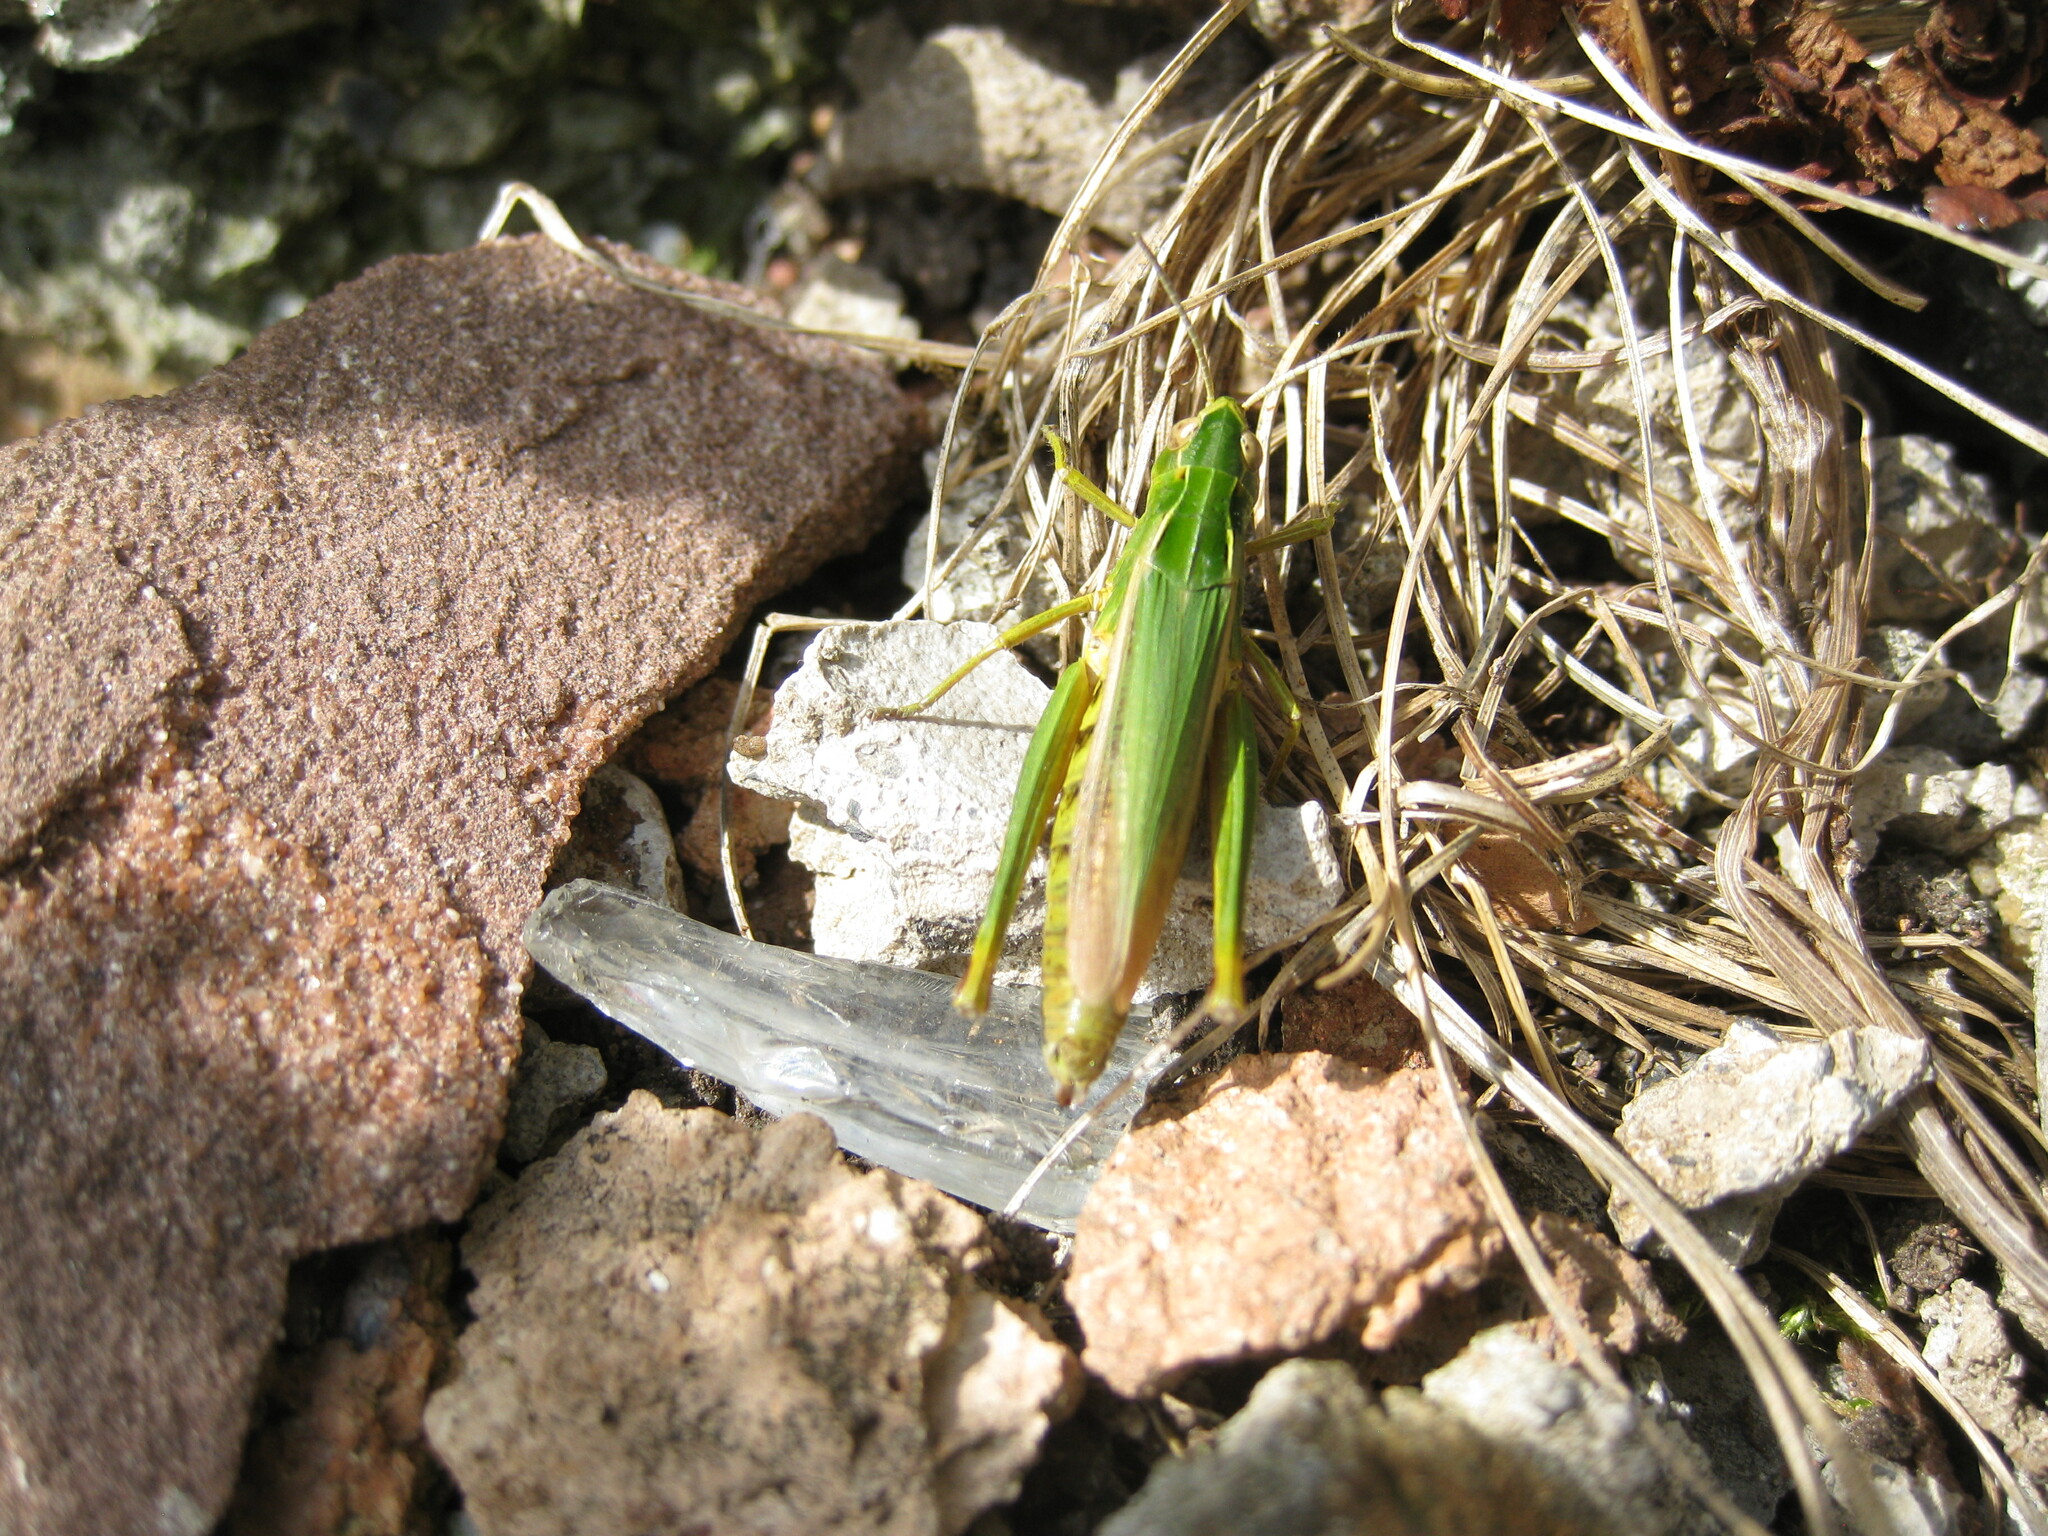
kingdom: Animalia
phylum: Arthropoda
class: Insecta
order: Orthoptera
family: Acrididae
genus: Omocestus
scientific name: Omocestus viridulus
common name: Common green grasshopper
